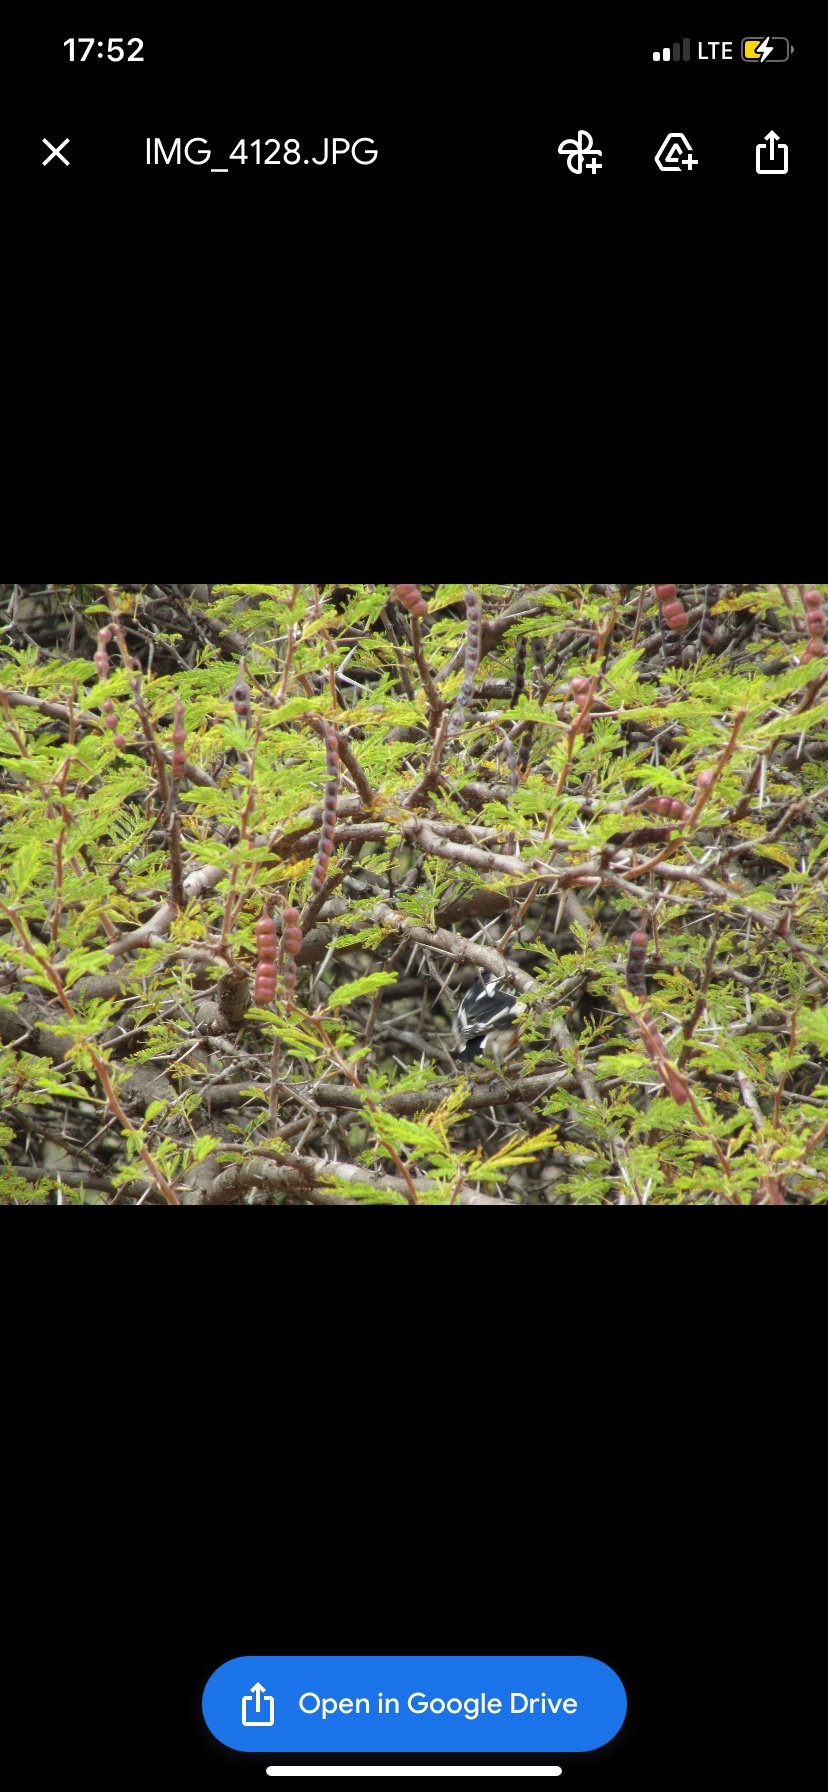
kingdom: Animalia
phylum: Chordata
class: Aves
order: Passeriformes
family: Platysteiridae
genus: Batis
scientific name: Batis molitor
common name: Chinspot batis
